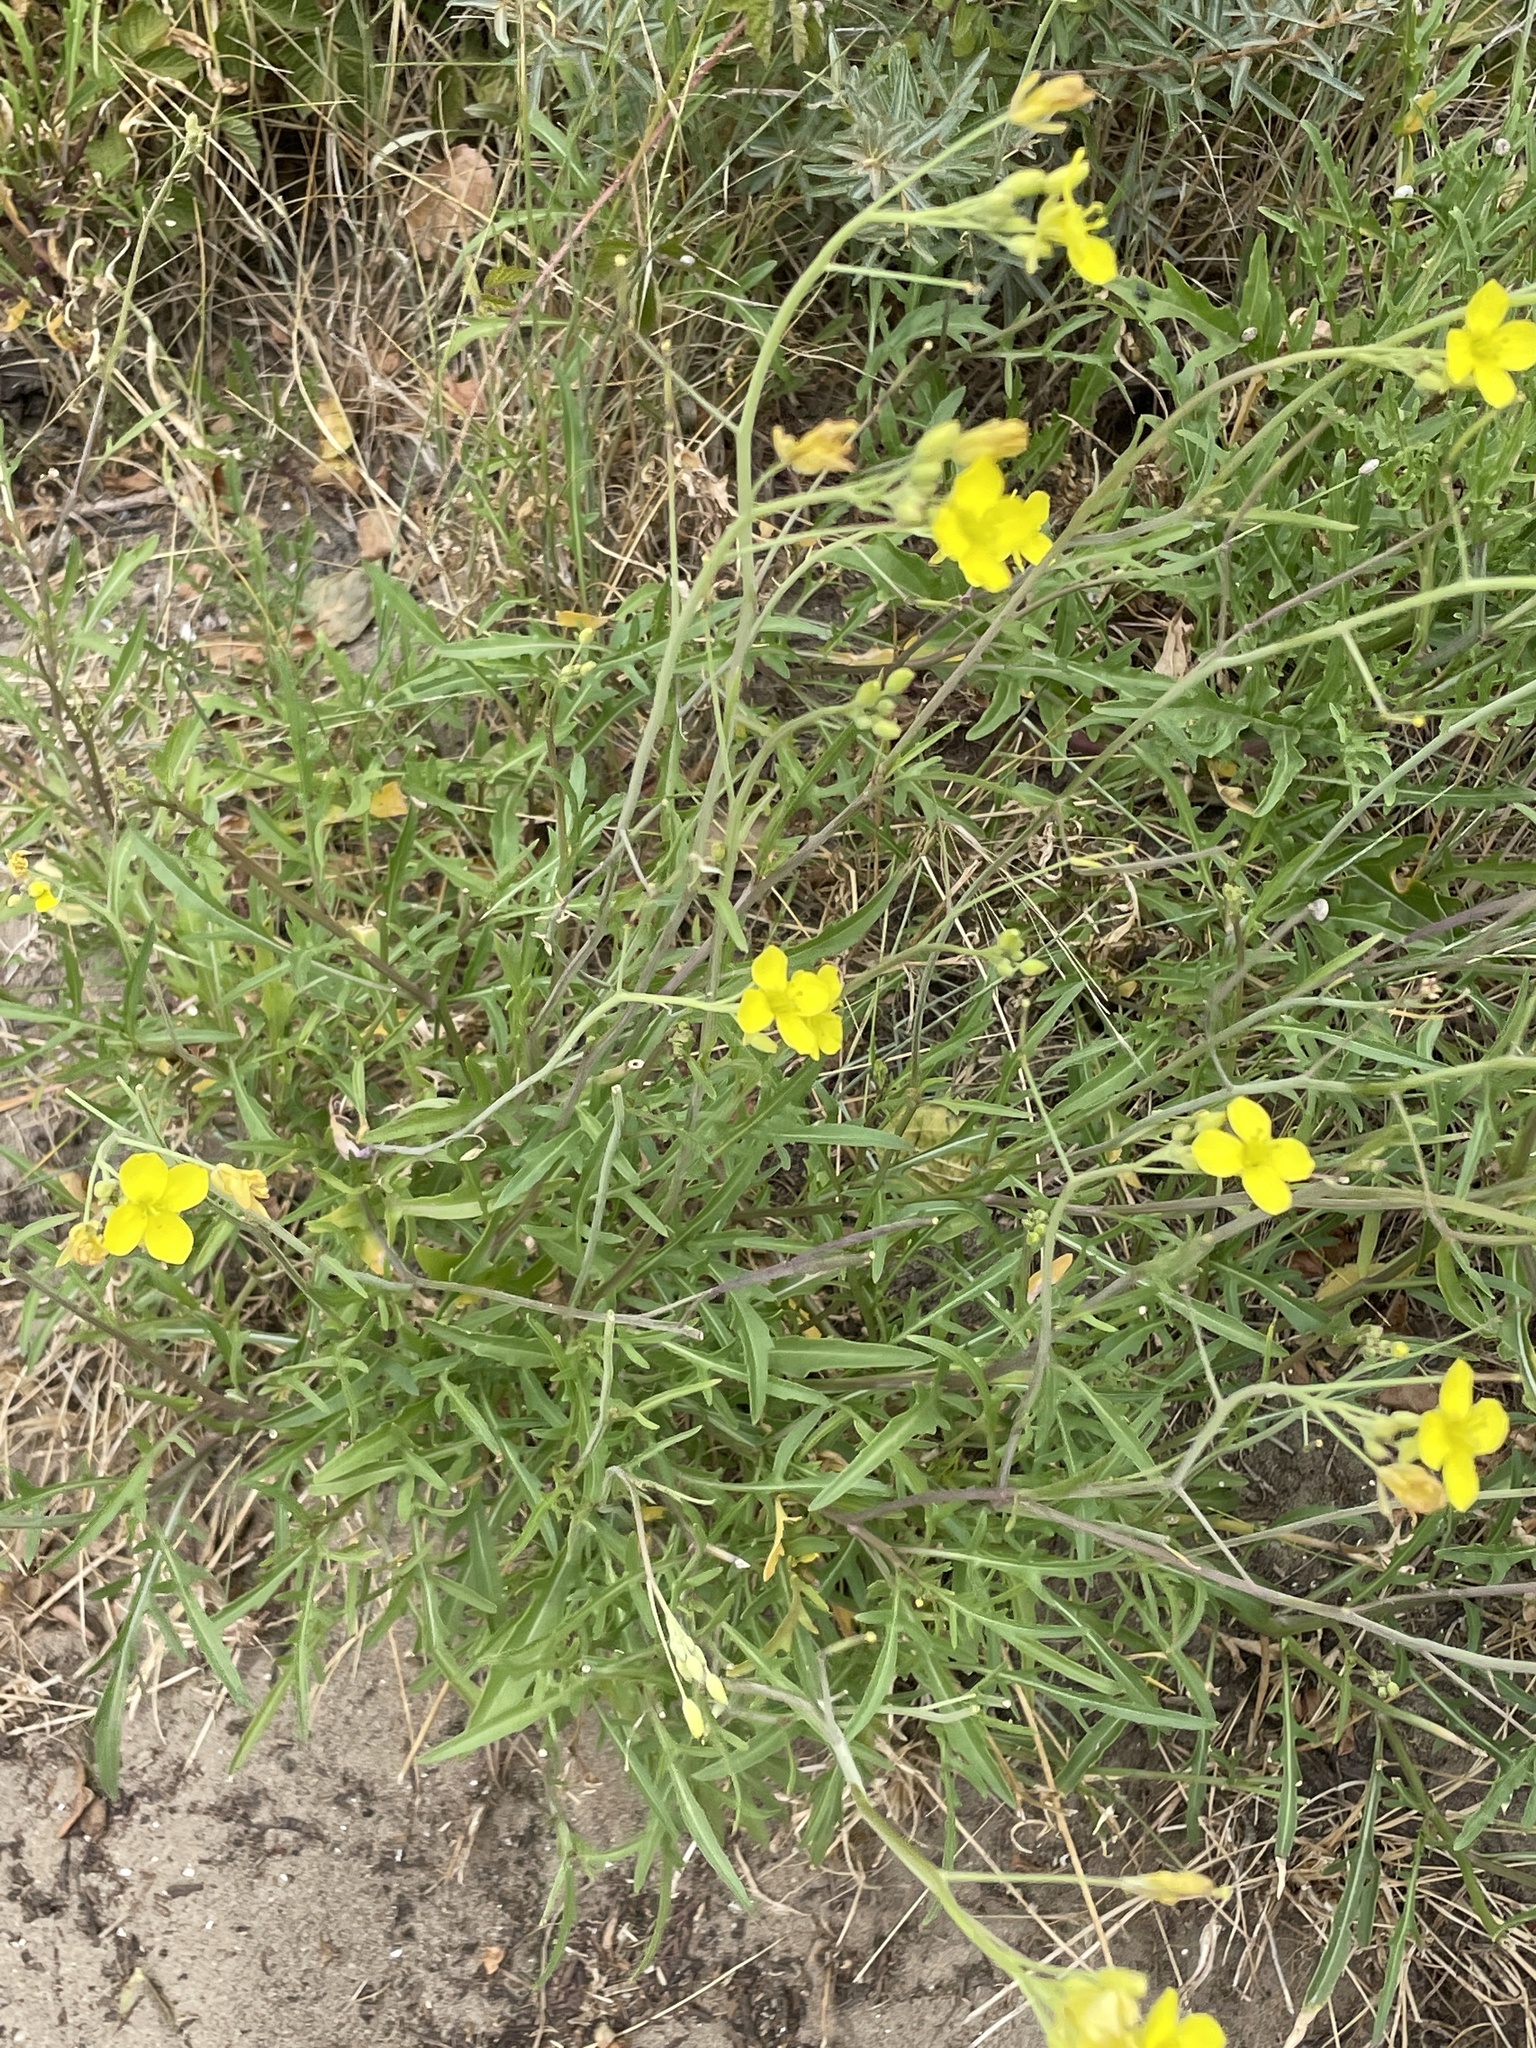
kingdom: Plantae
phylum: Tracheophyta
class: Magnoliopsida
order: Brassicales
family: Brassicaceae
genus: Diplotaxis
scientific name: Diplotaxis tenuifolia
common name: Perennial wall-rocket
